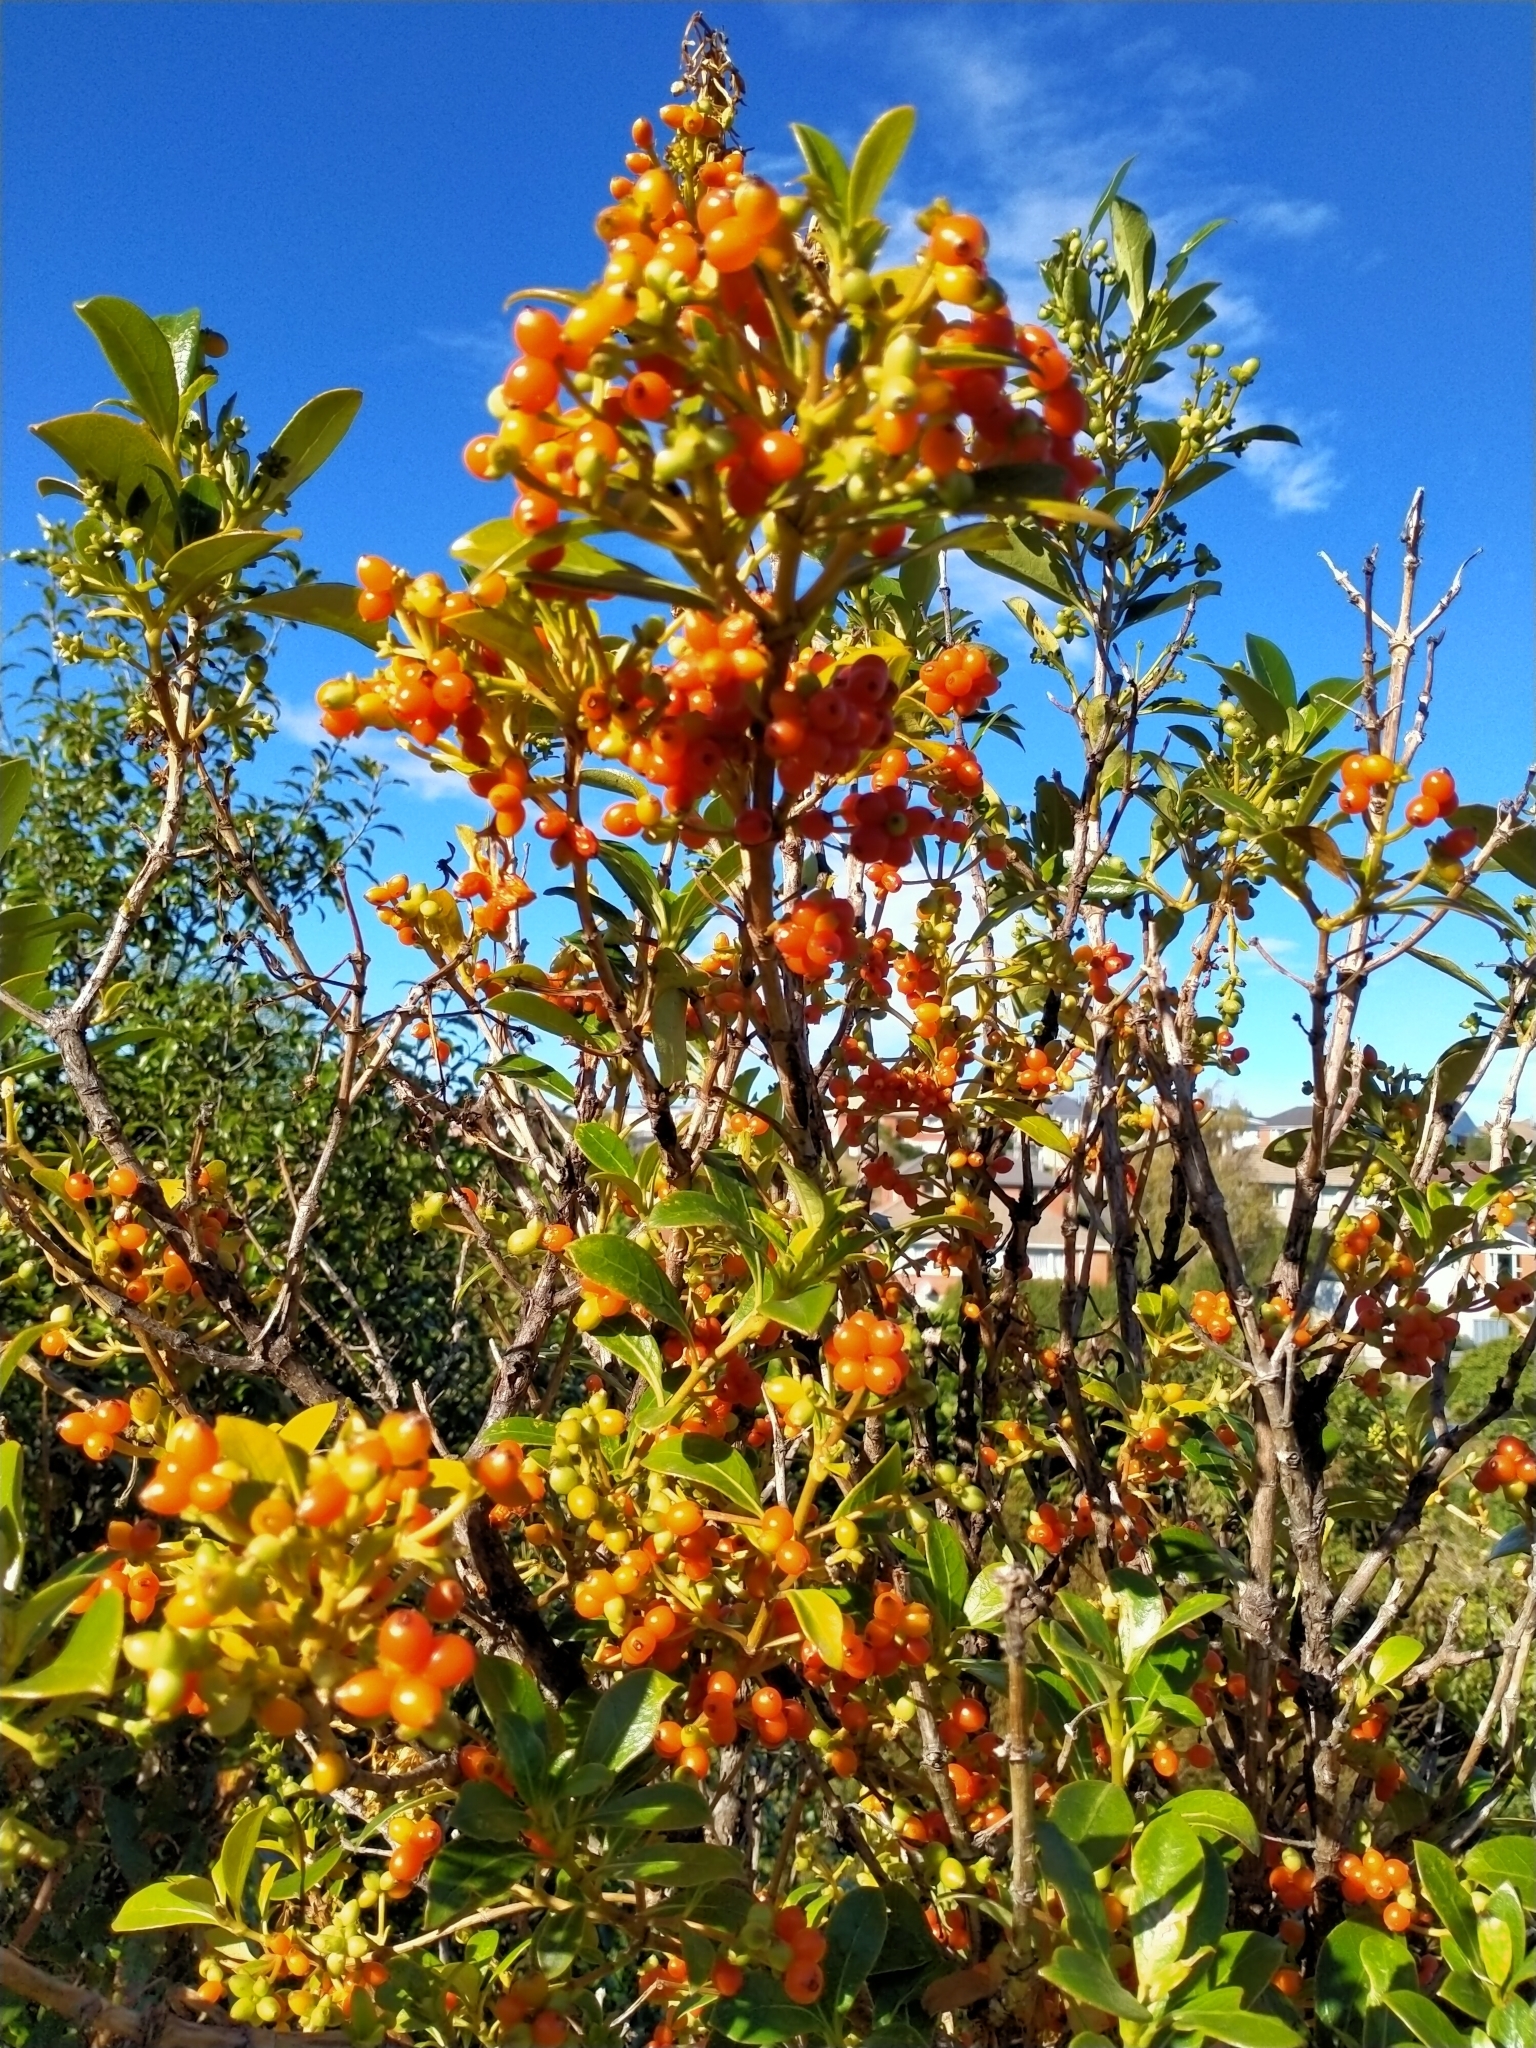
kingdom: Plantae
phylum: Tracheophyta
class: Magnoliopsida
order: Gentianales
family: Rubiaceae
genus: Coprosma
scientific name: Coprosma lucida
